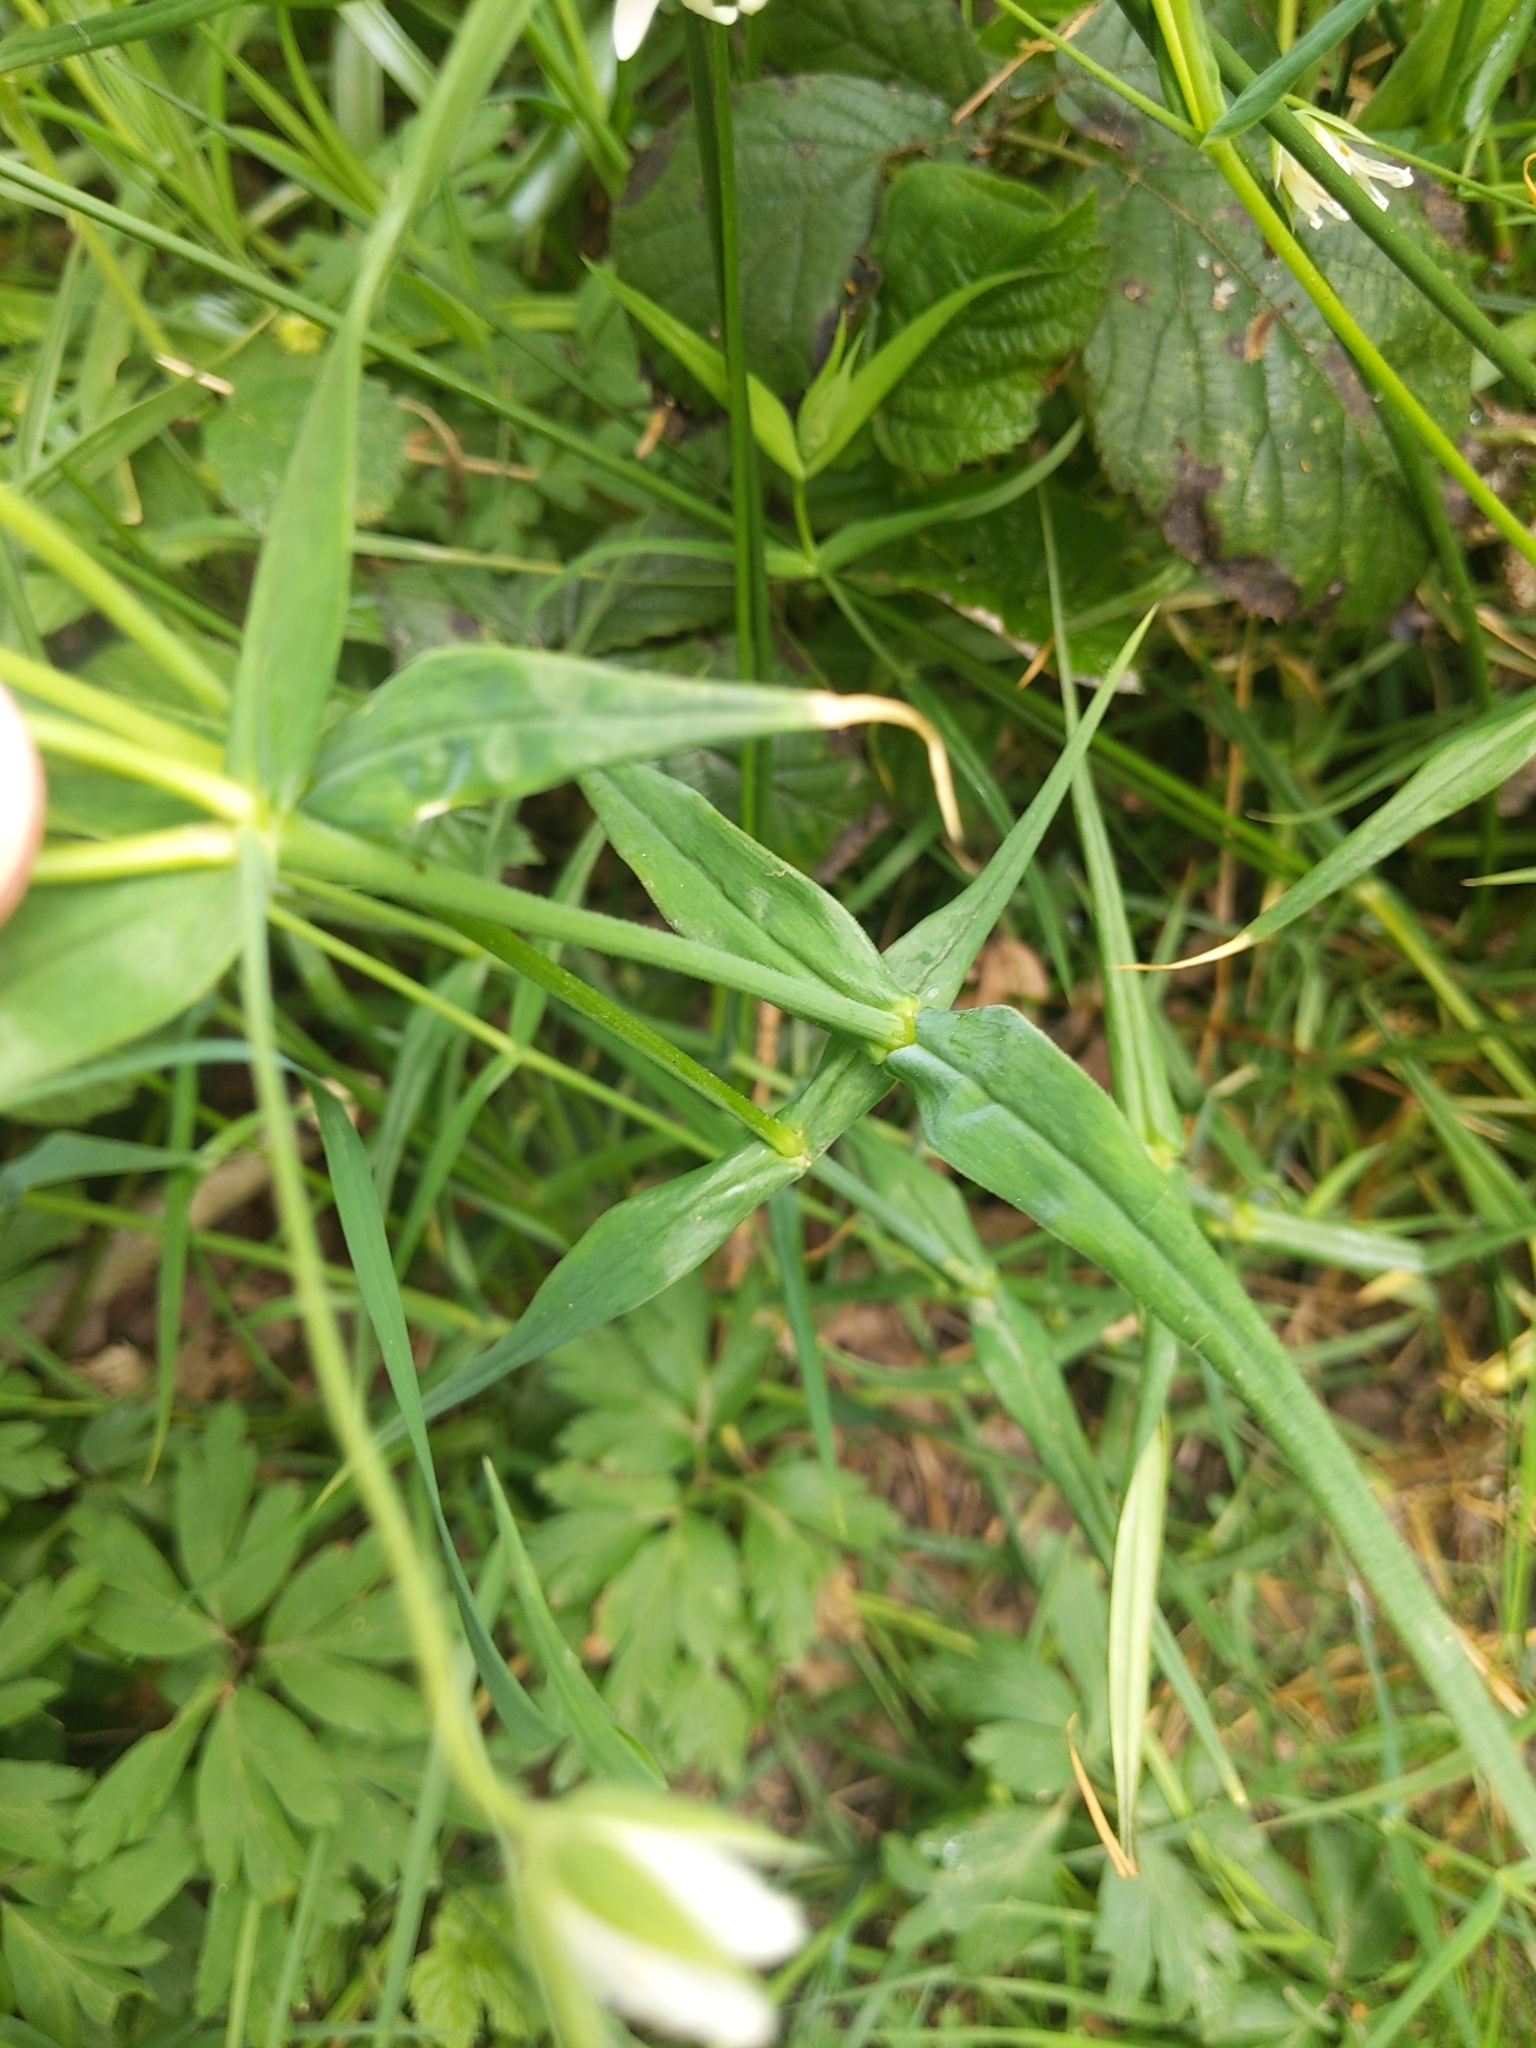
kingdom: Plantae
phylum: Tracheophyta
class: Magnoliopsida
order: Caryophyllales
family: Caryophyllaceae
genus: Rabelera
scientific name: Rabelera holostea
